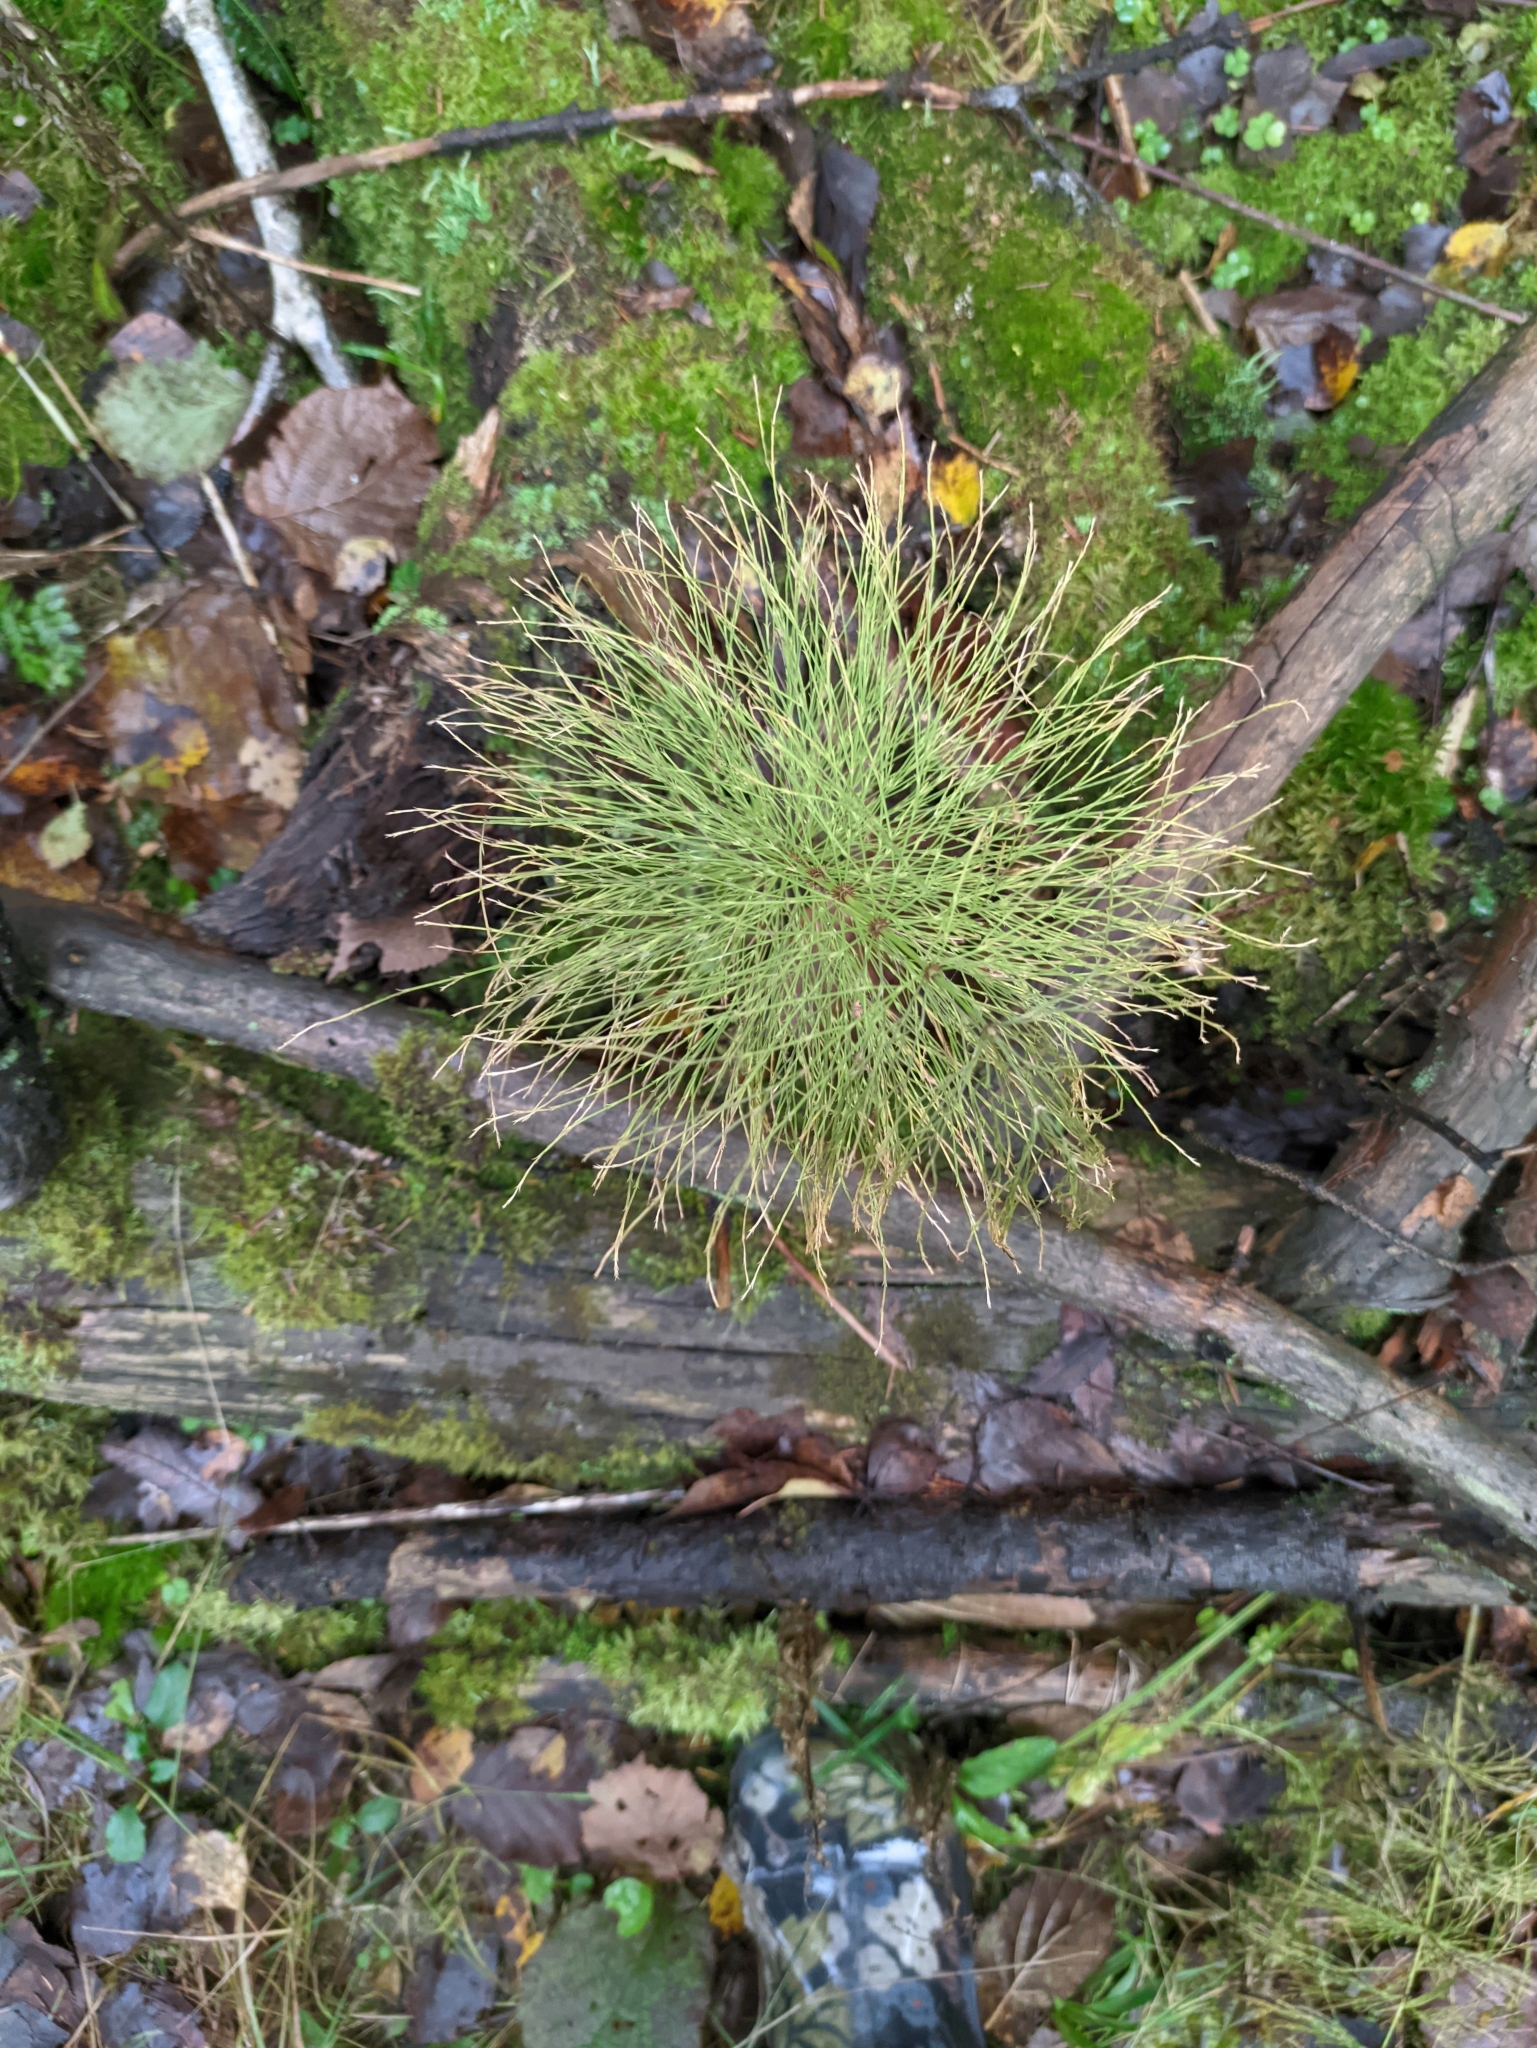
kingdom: Plantae
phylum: Tracheophyta
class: Polypodiopsida
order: Equisetales
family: Equisetaceae
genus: Equisetum
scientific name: Equisetum sylvaticum
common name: Wood horsetail
